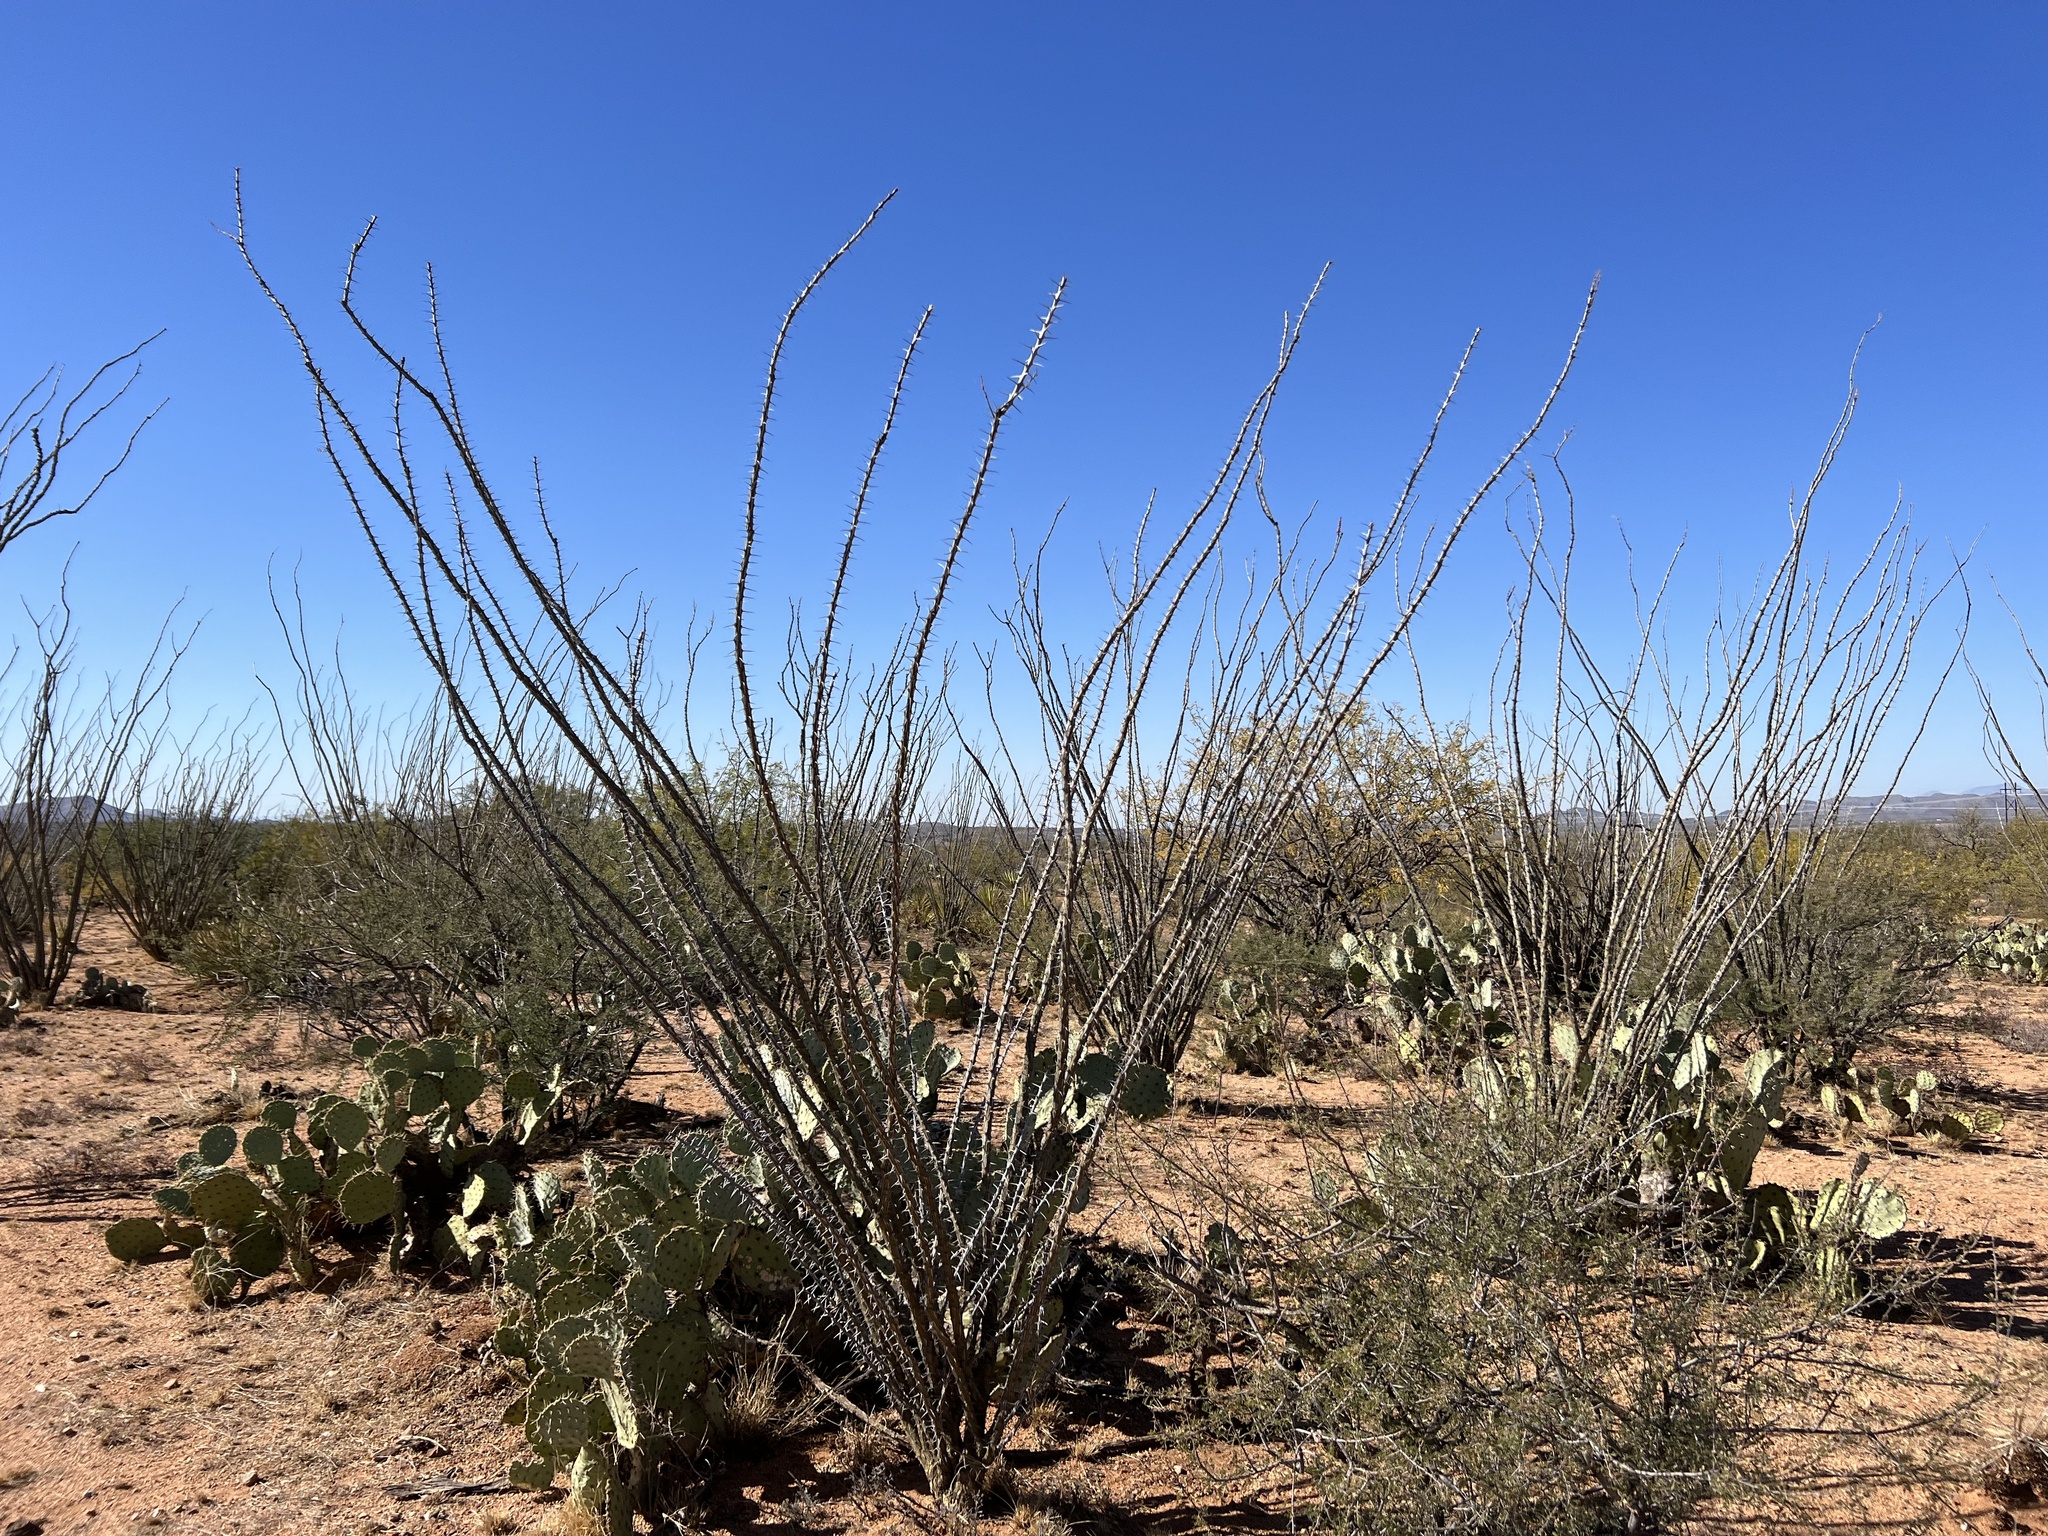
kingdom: Plantae
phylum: Tracheophyta
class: Magnoliopsida
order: Ericales
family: Fouquieriaceae
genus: Fouquieria
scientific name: Fouquieria splendens
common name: Vine-cactus
